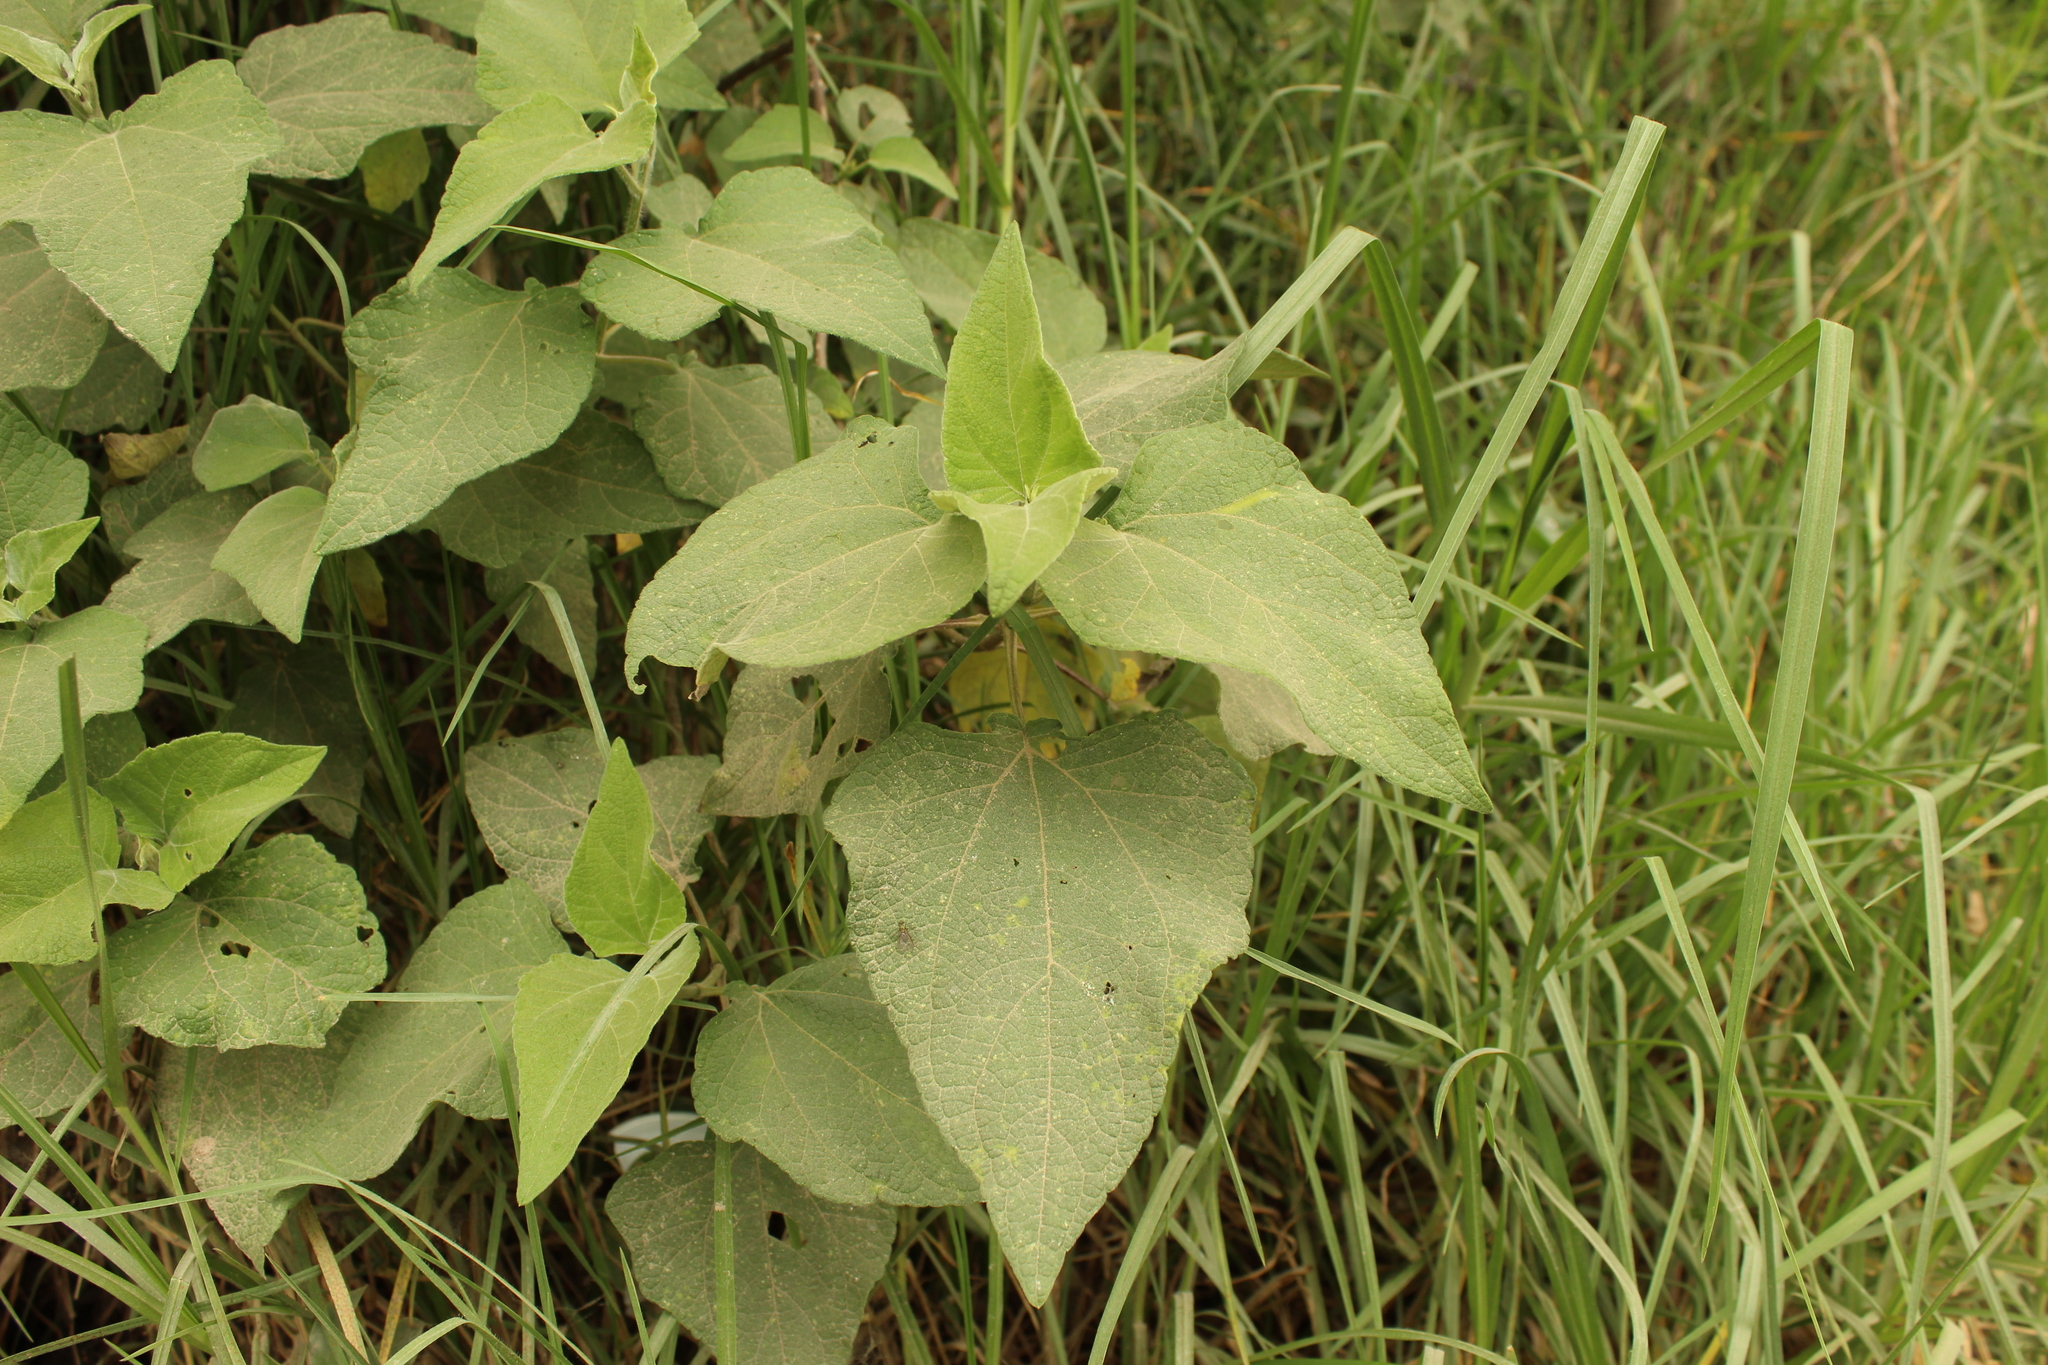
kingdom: Plantae
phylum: Tracheophyta
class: Magnoliopsida
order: Asterales
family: Asteraceae
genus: Montanoa
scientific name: Montanoa ovalifolia
